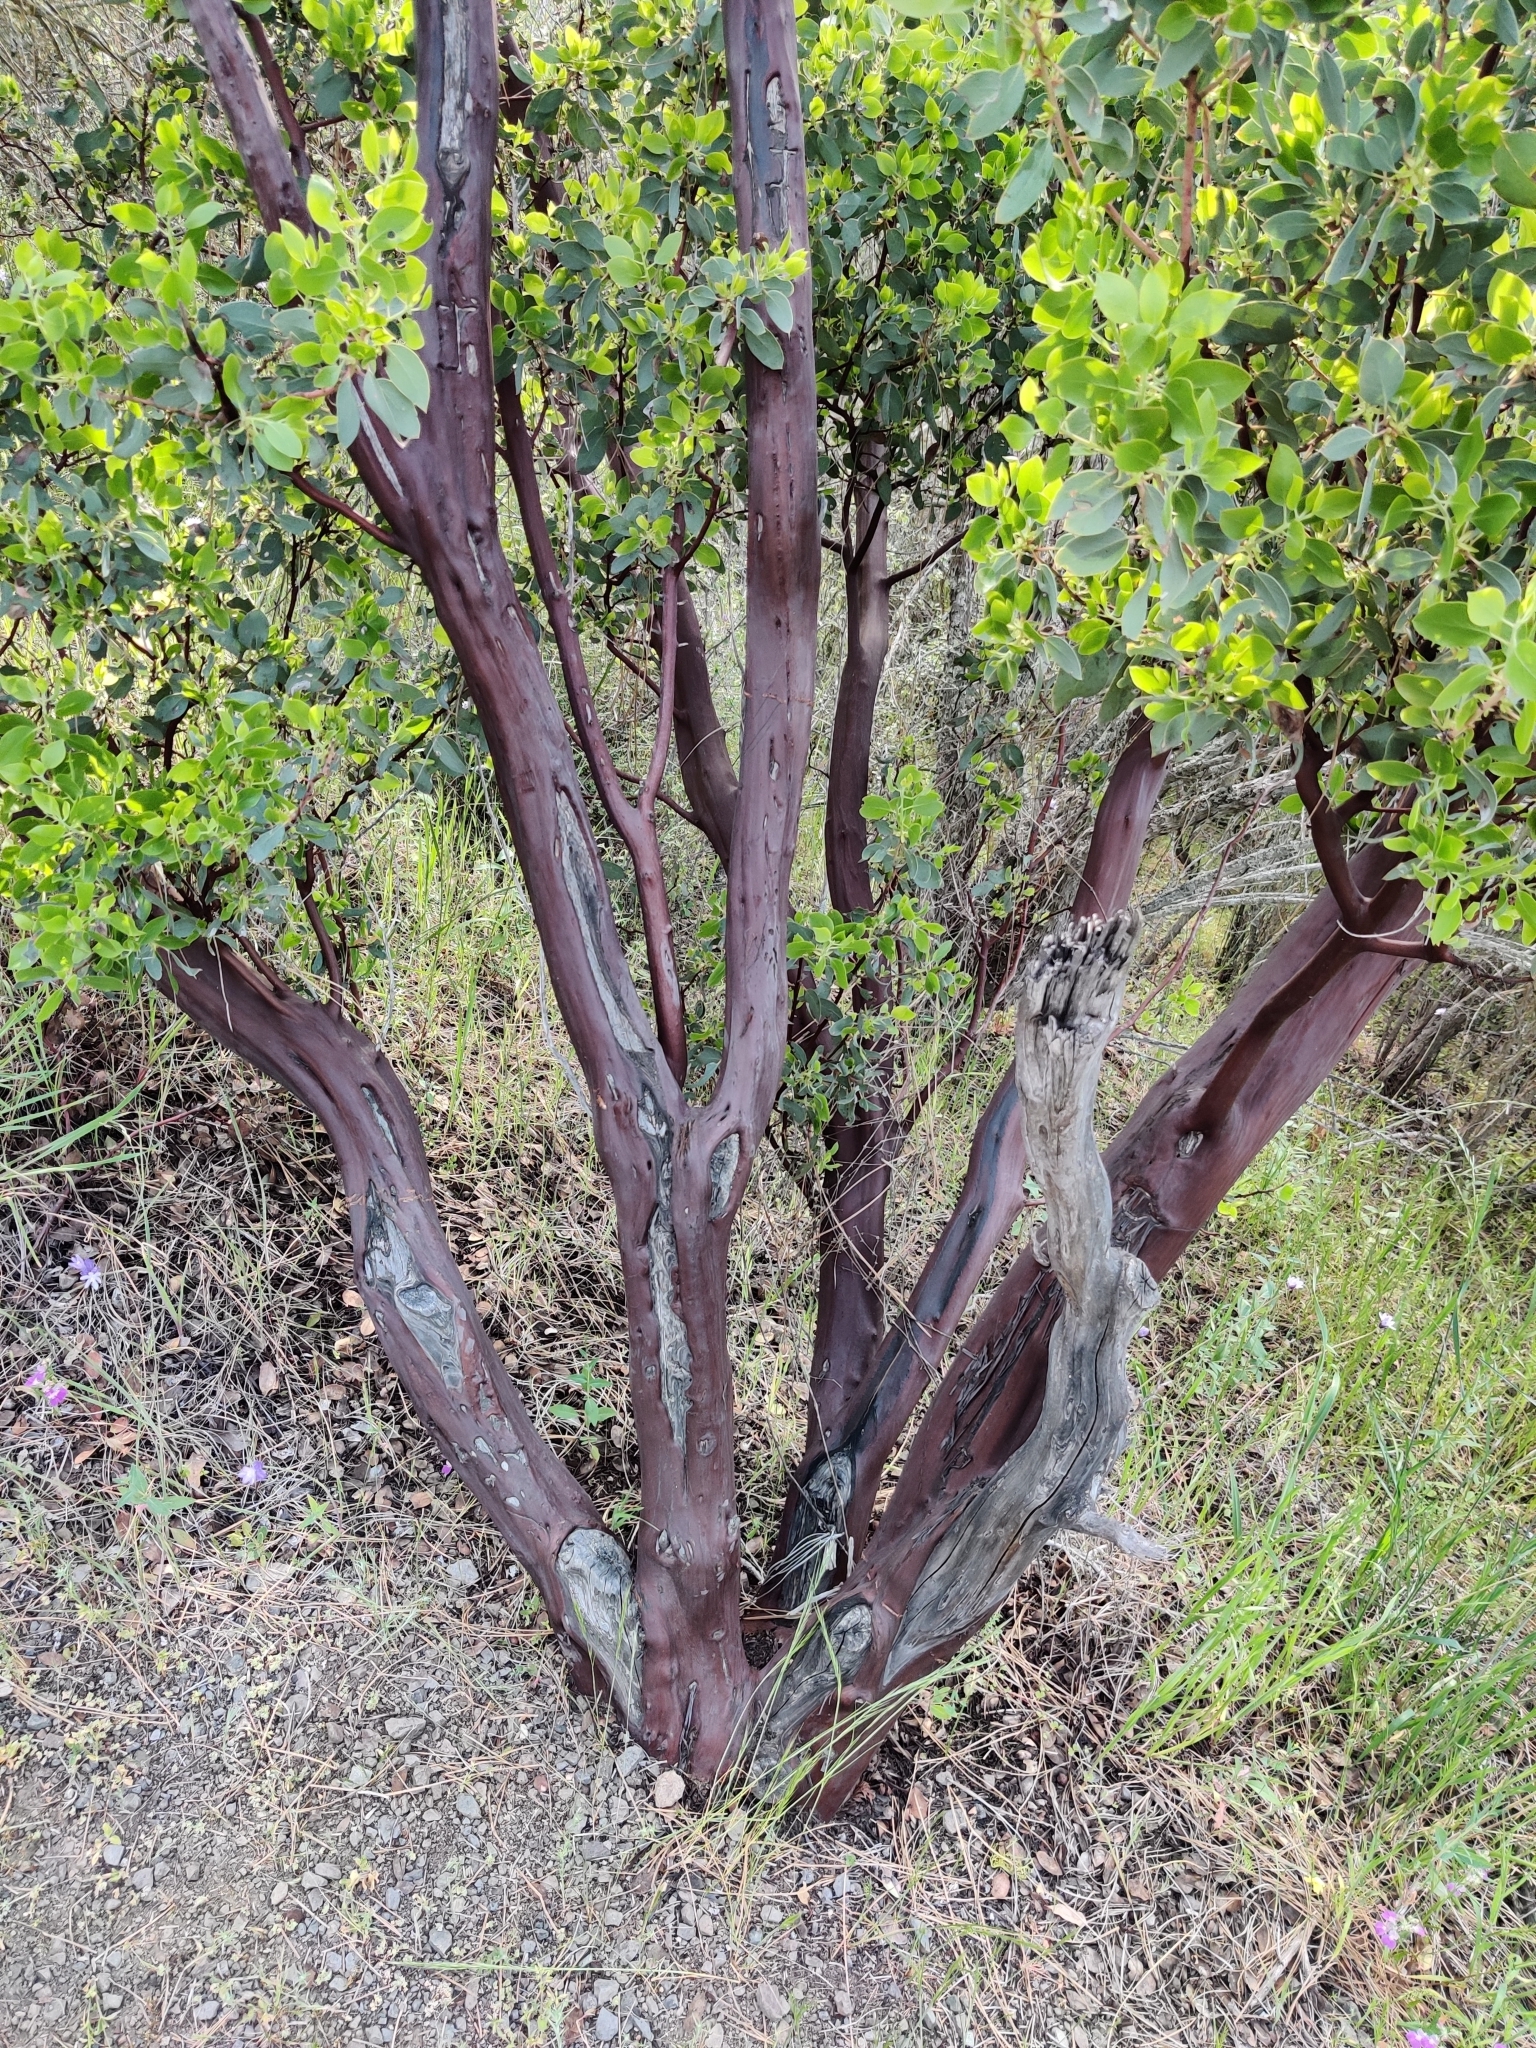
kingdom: Plantae
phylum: Tracheophyta
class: Magnoliopsida
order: Ericales
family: Ericaceae
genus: Arctostaphylos
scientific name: Arctostaphylos glauca
